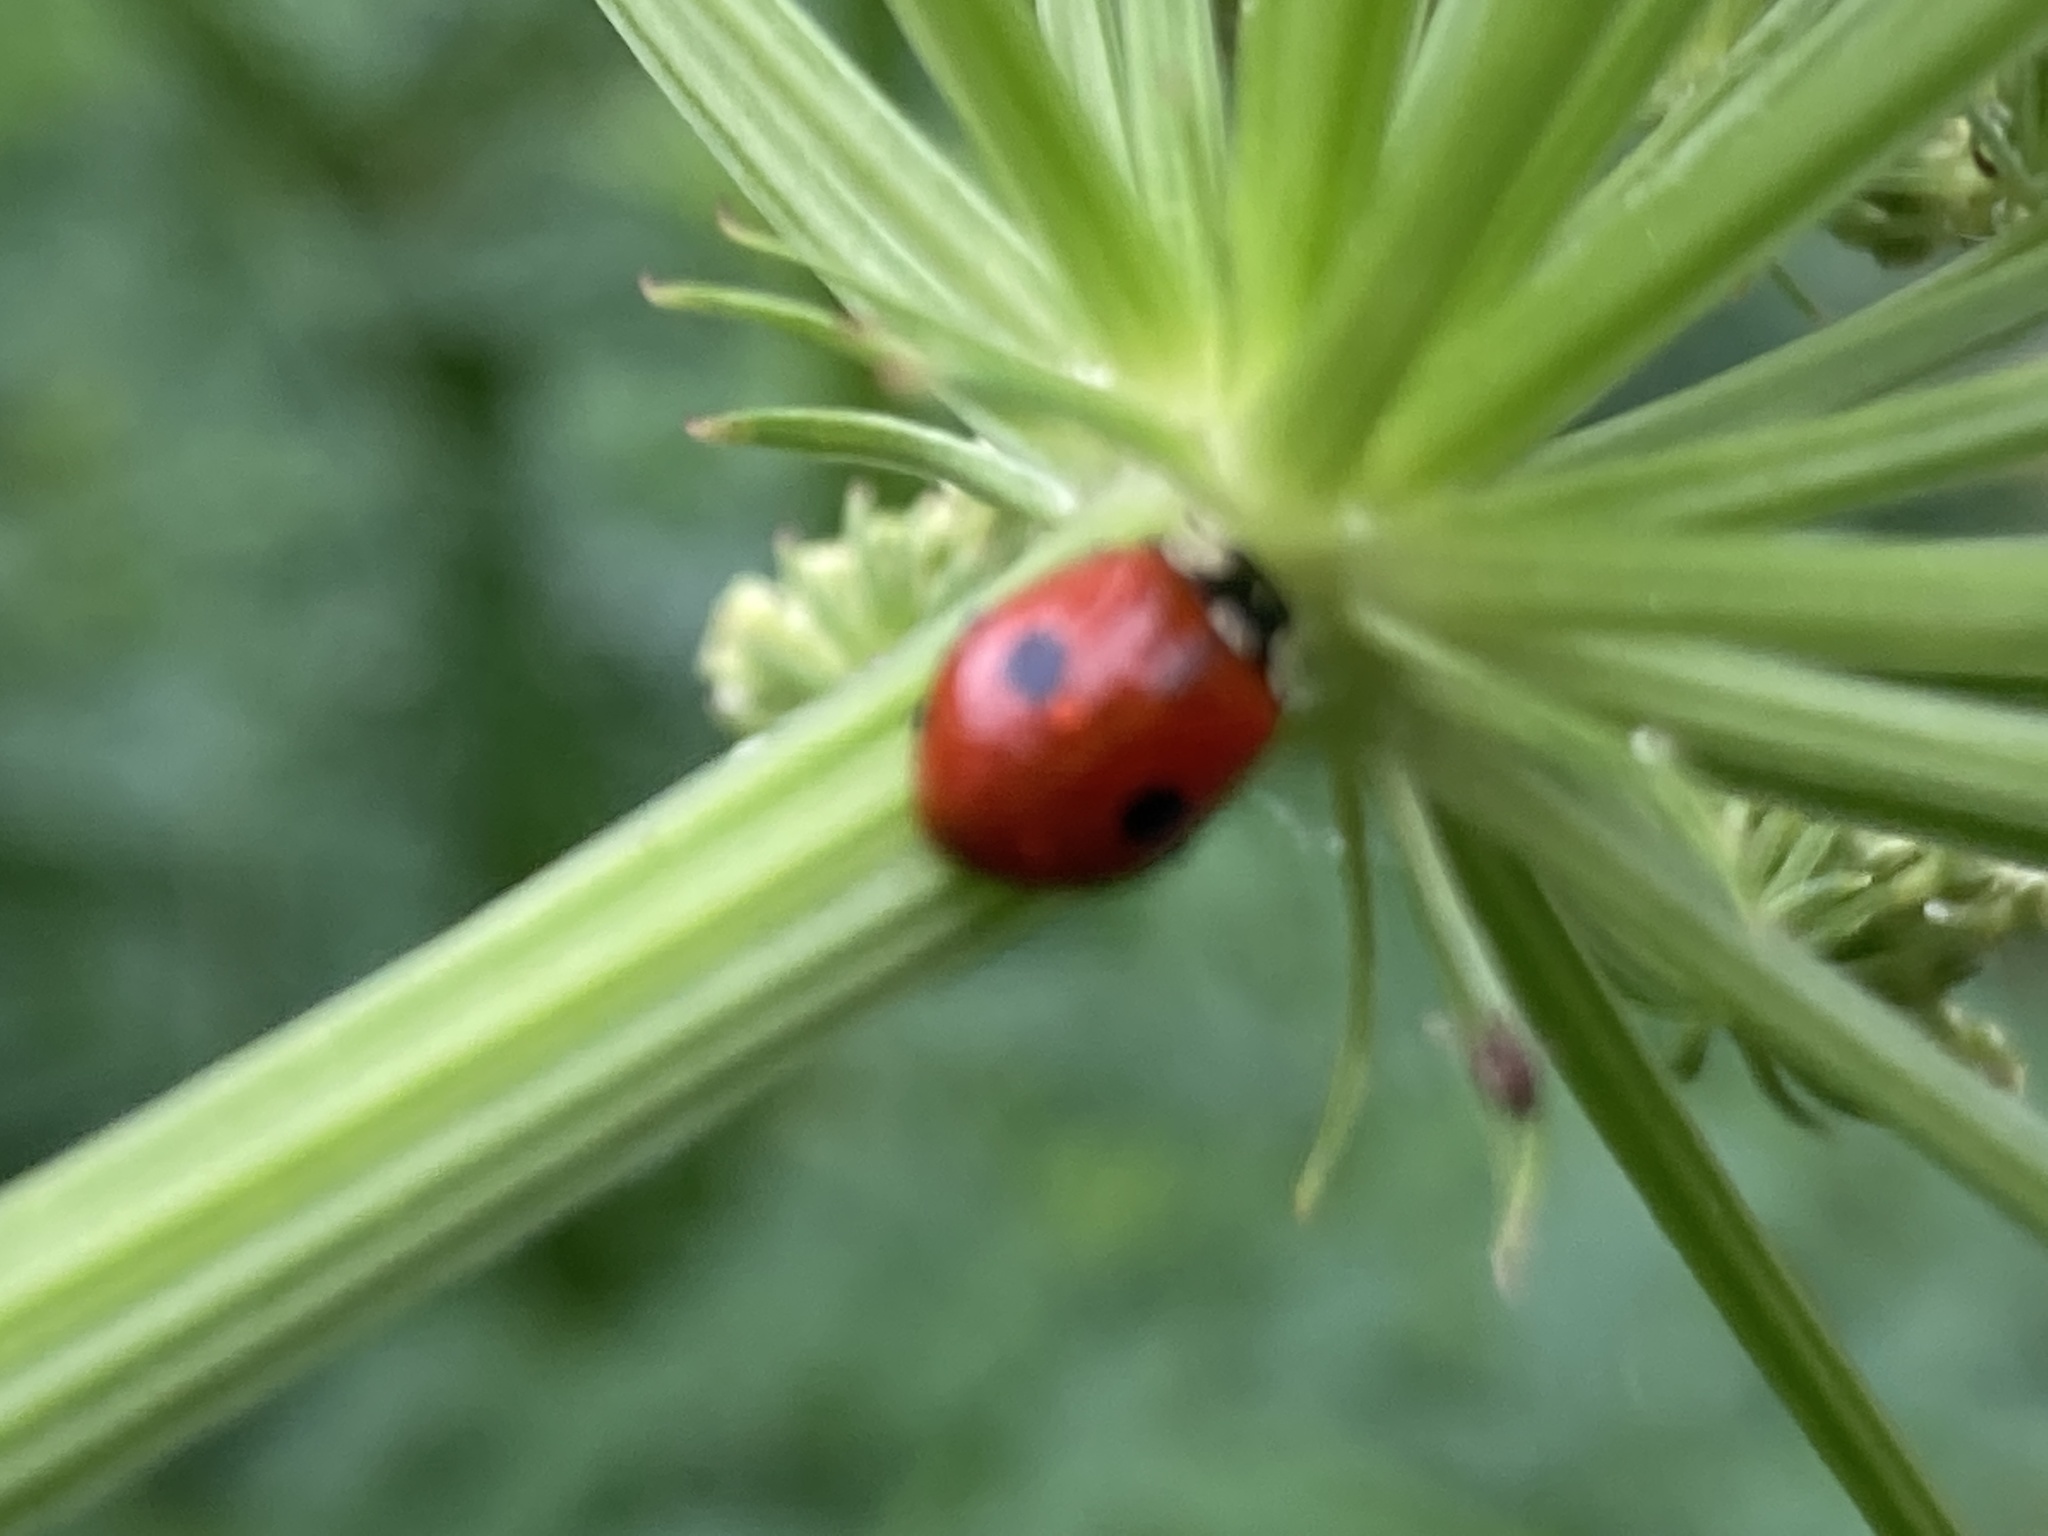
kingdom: Animalia
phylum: Arthropoda
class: Insecta
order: Coleoptera
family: Coccinellidae
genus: Adalia
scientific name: Adalia bipunctata
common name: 2-spot ladybird
